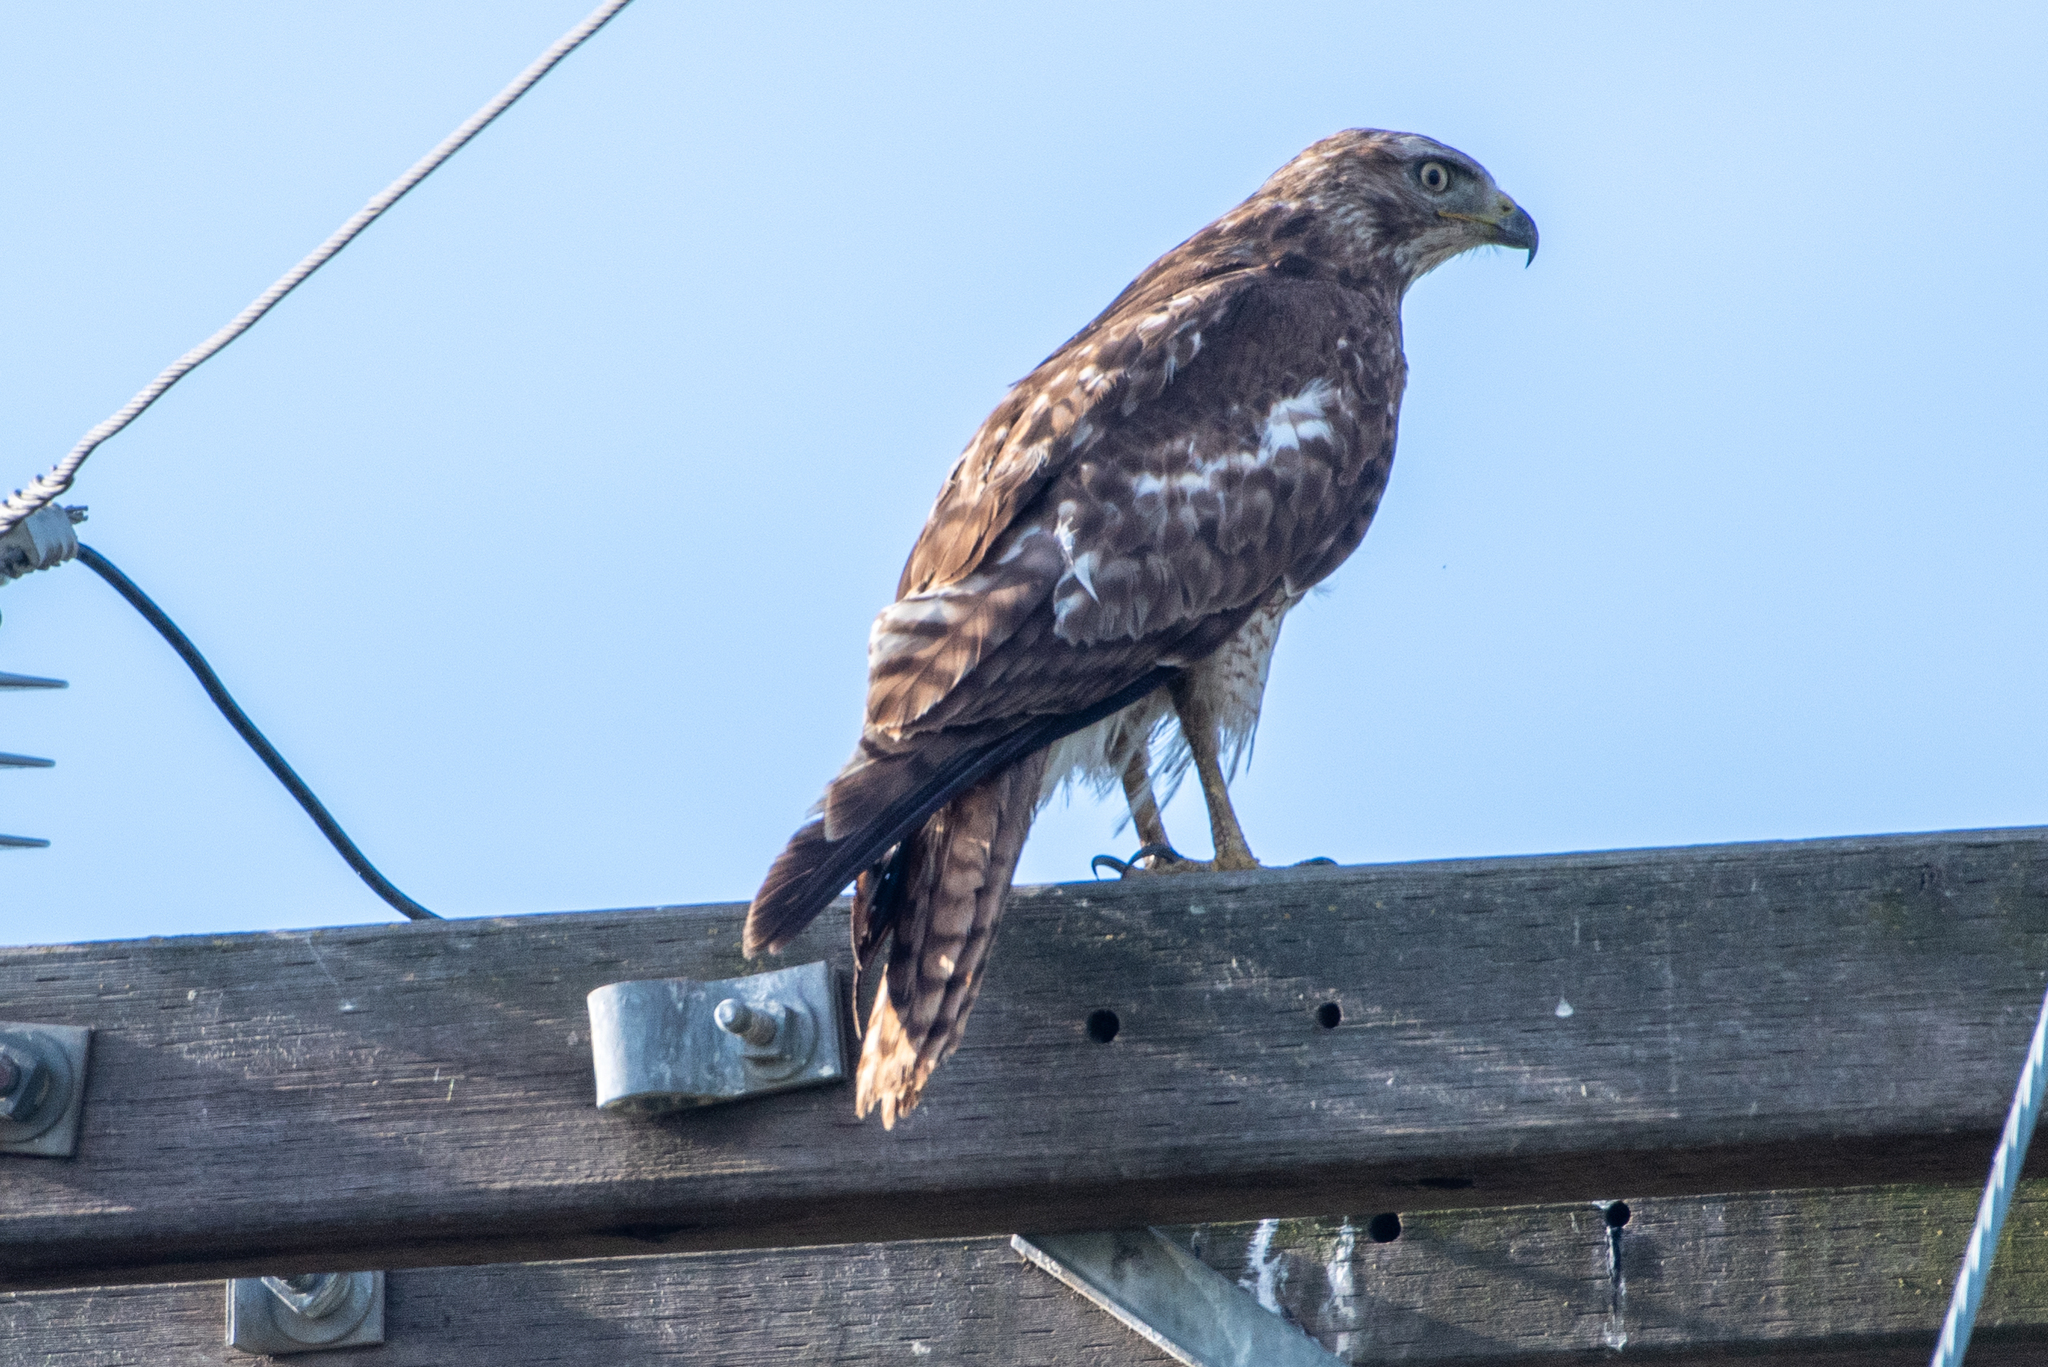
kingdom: Animalia
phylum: Chordata
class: Aves
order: Accipitriformes
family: Accipitridae
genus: Buteo
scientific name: Buteo jamaicensis
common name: Red-tailed hawk
